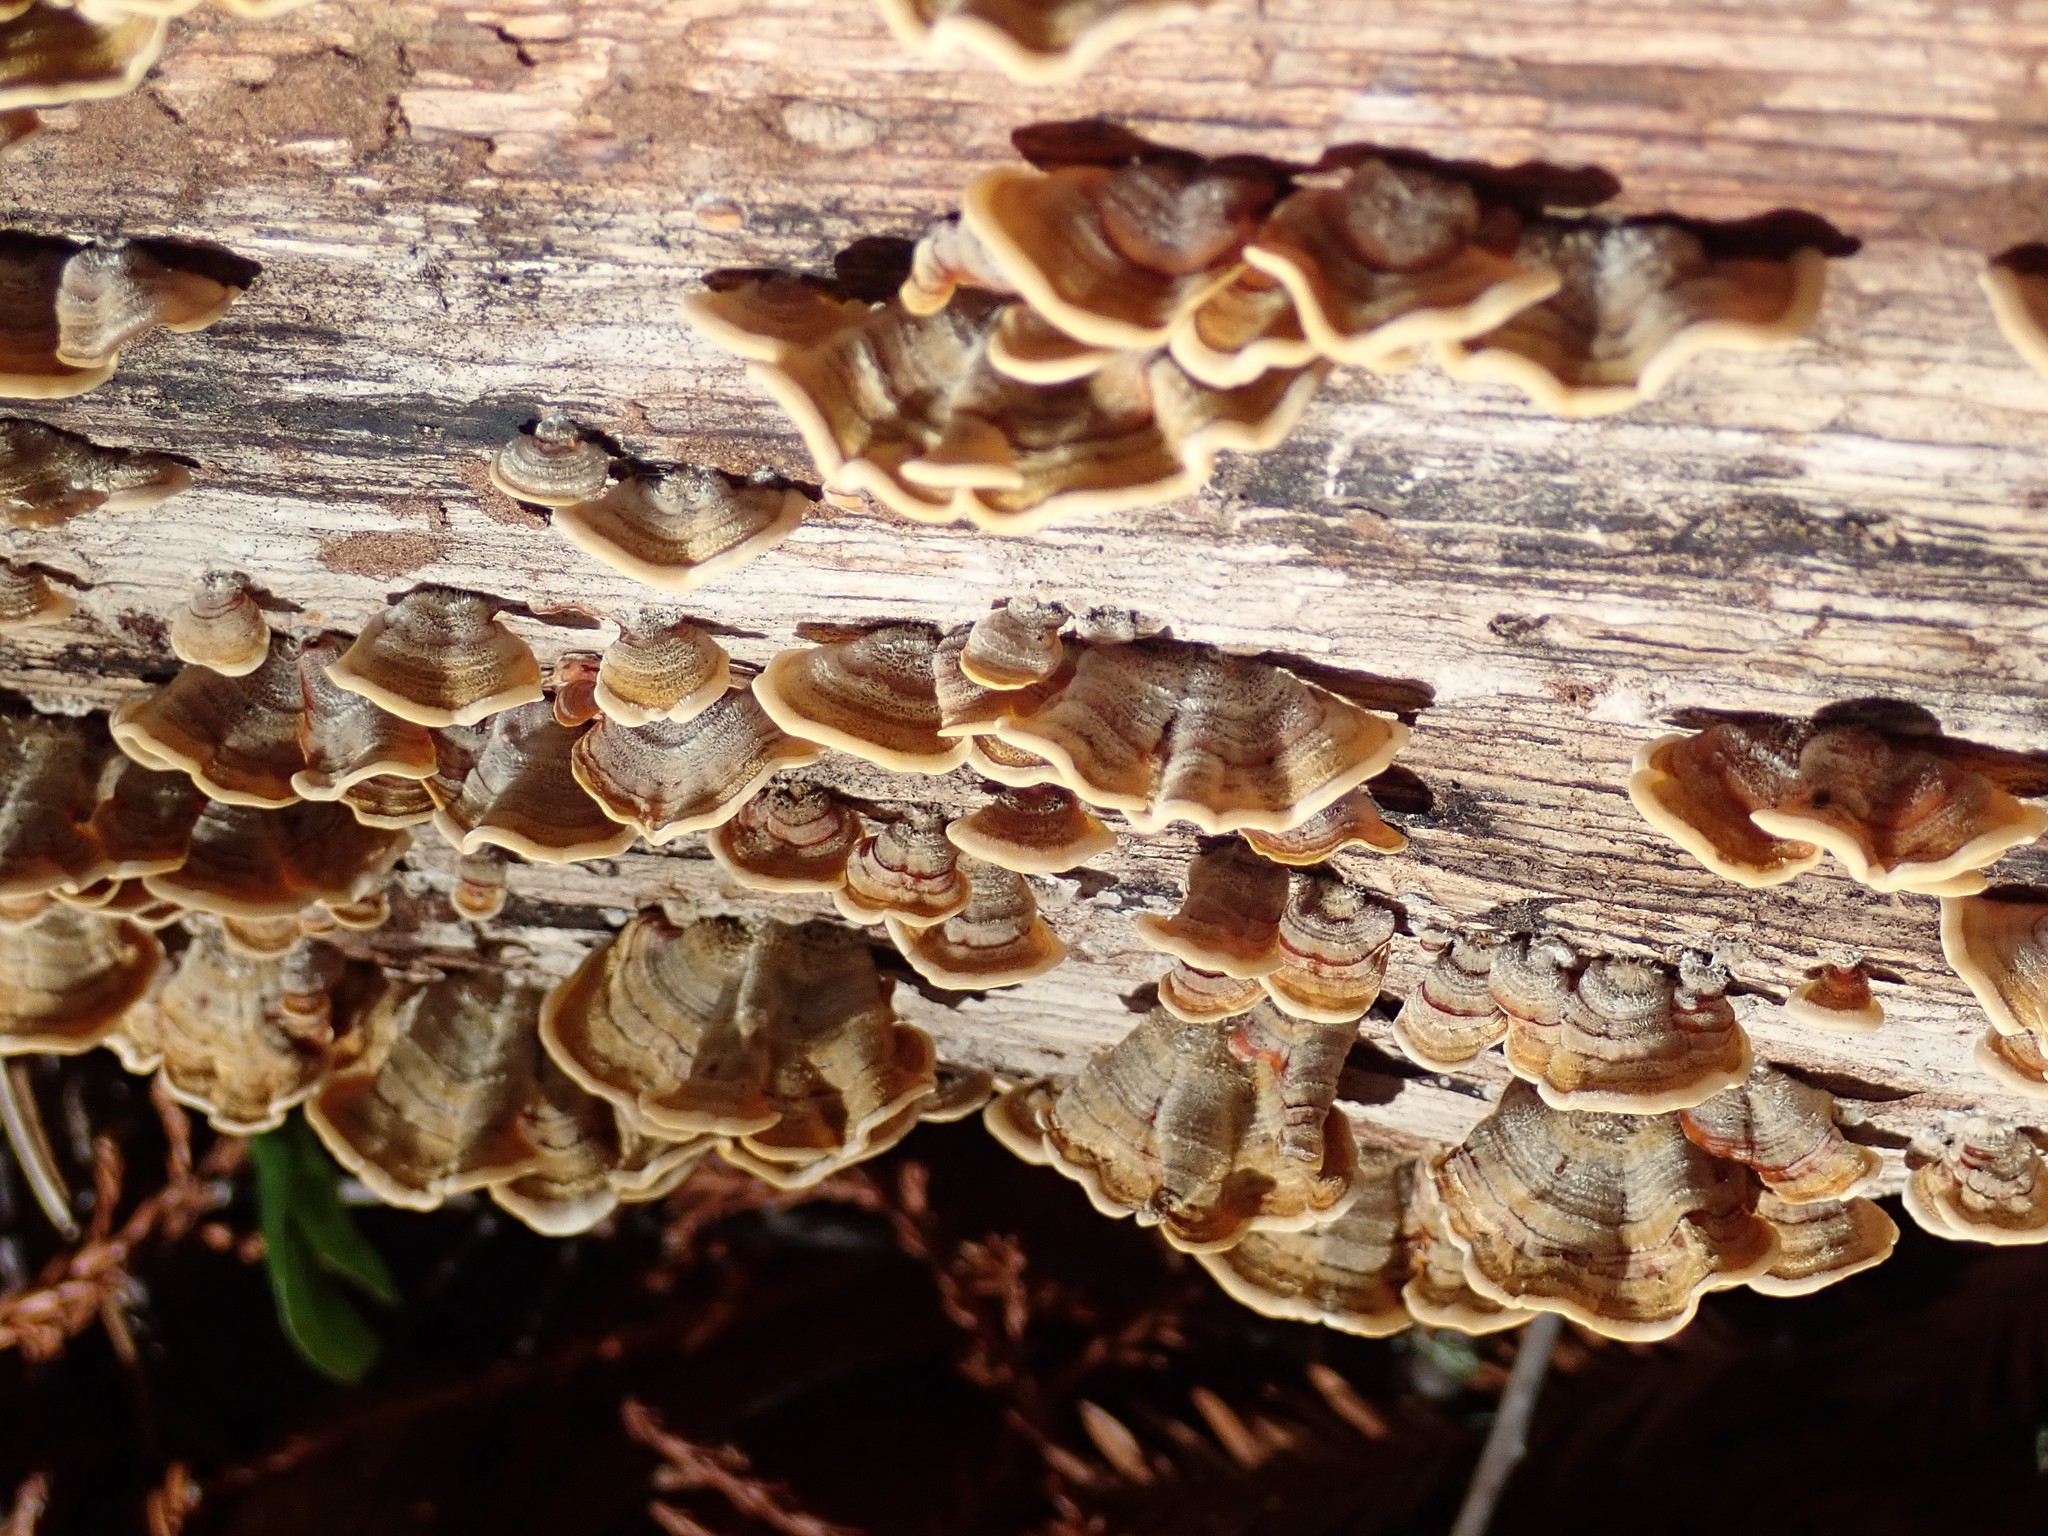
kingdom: Fungi
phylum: Basidiomycota
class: Agaricomycetes
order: Russulales
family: Stereaceae
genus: Stereum
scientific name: Stereum hirsutum
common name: Hairy curtain crust
